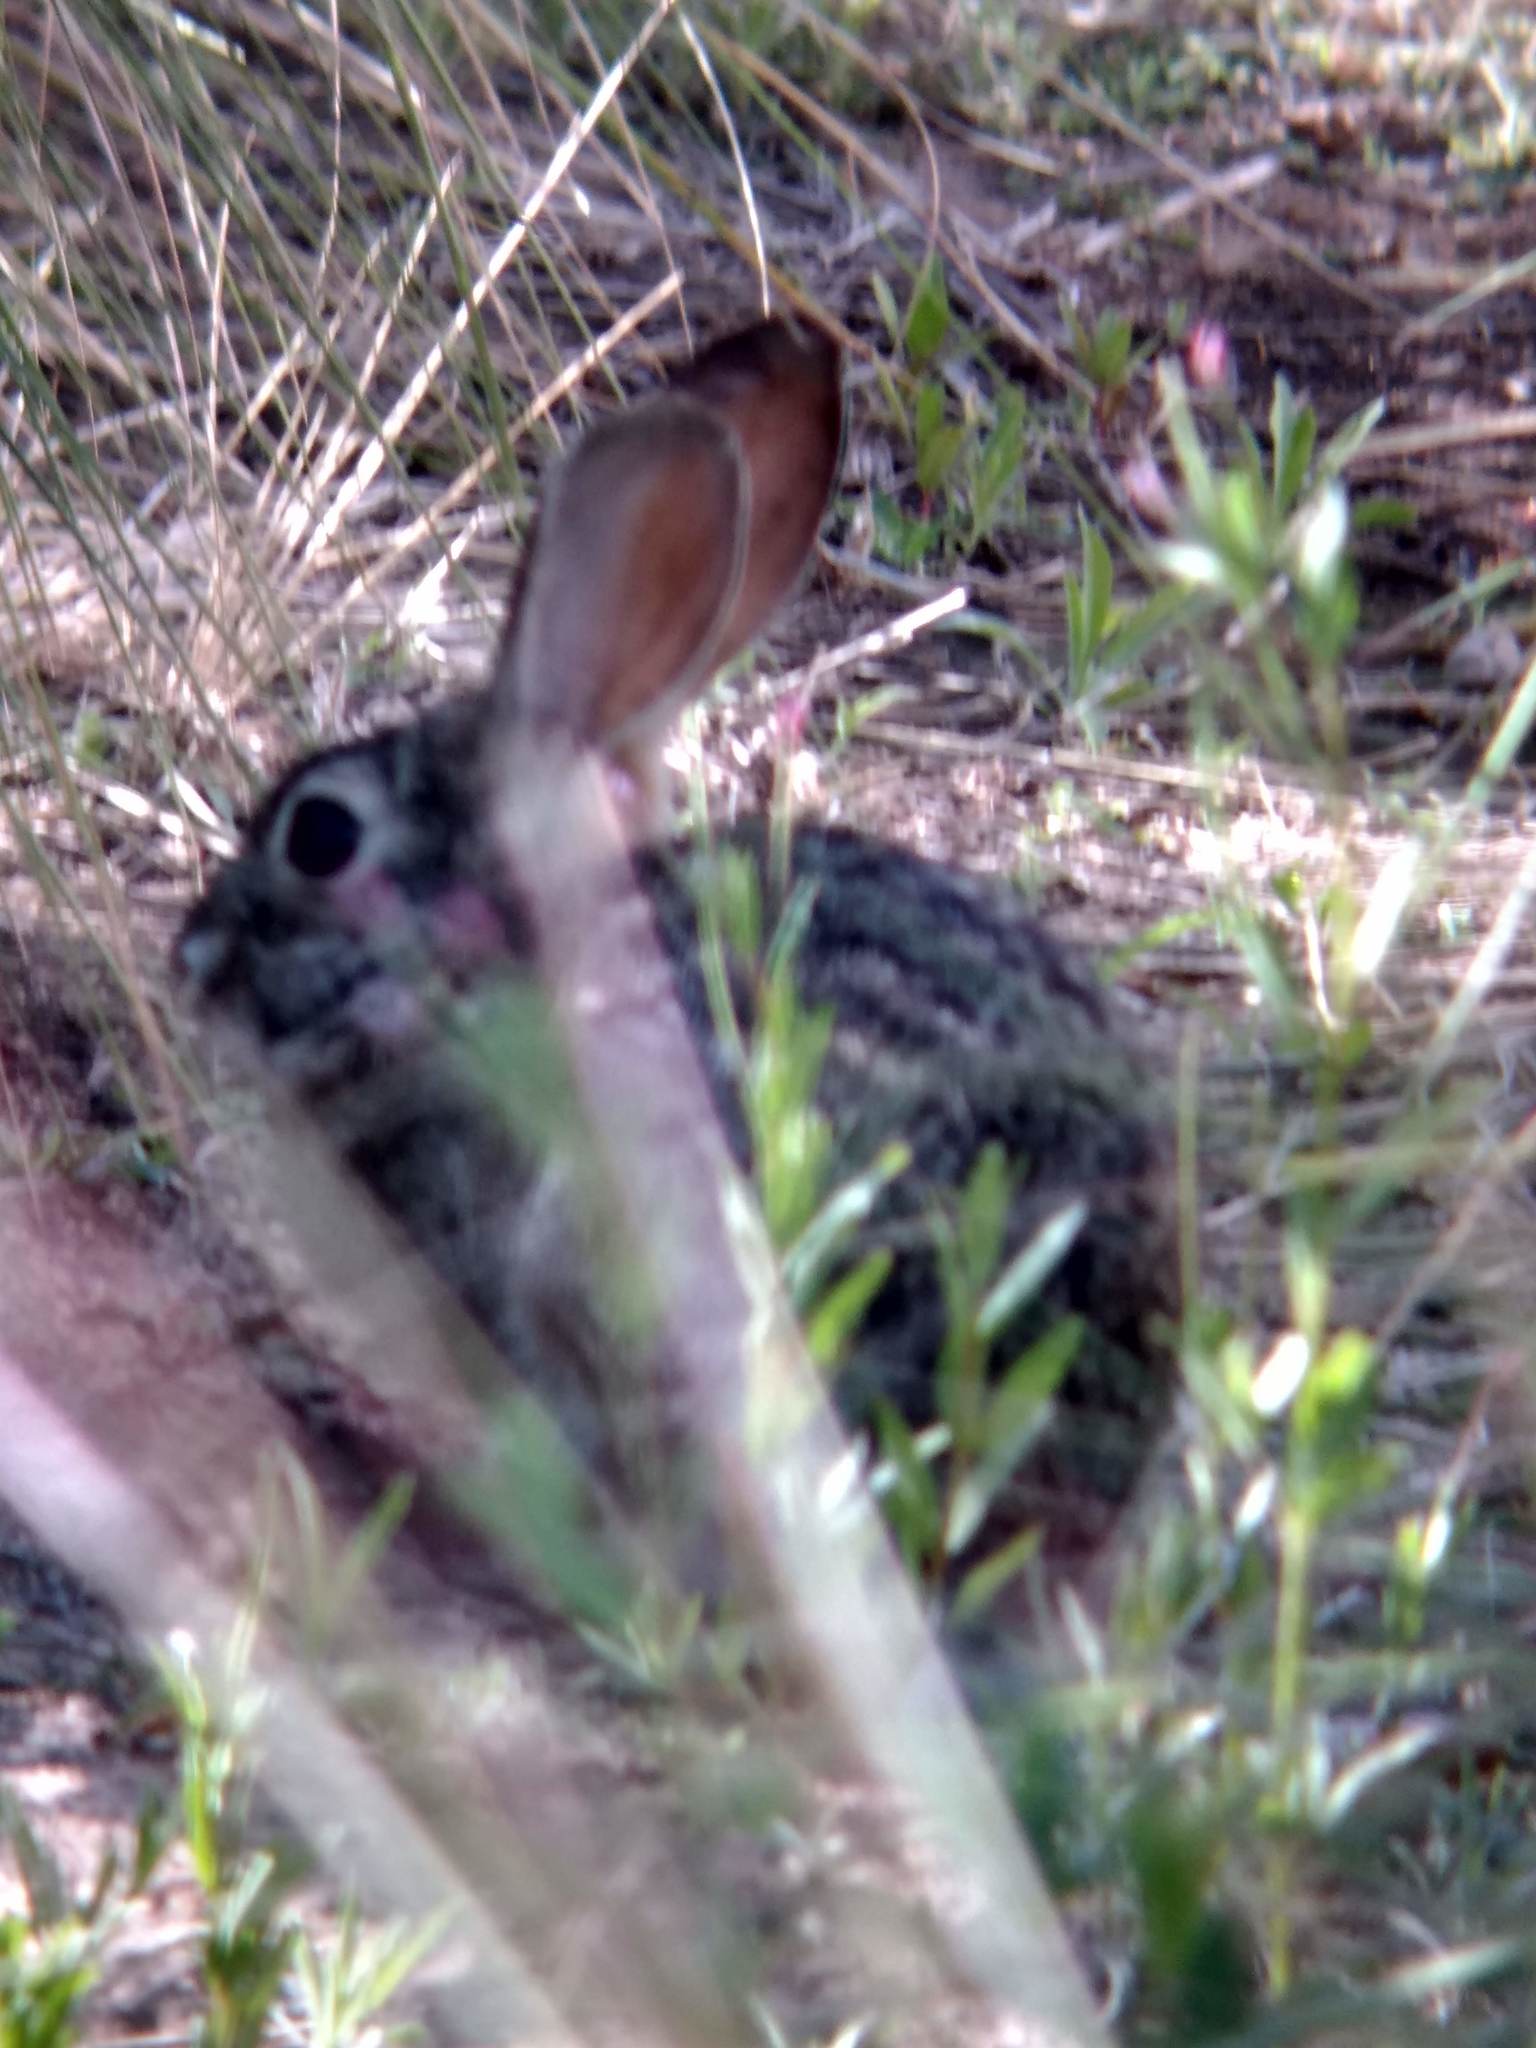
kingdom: Animalia
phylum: Chordata
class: Mammalia
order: Lagomorpha
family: Leporidae
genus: Sylvilagus
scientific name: Sylvilagus audubonii
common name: Desert cottontail
